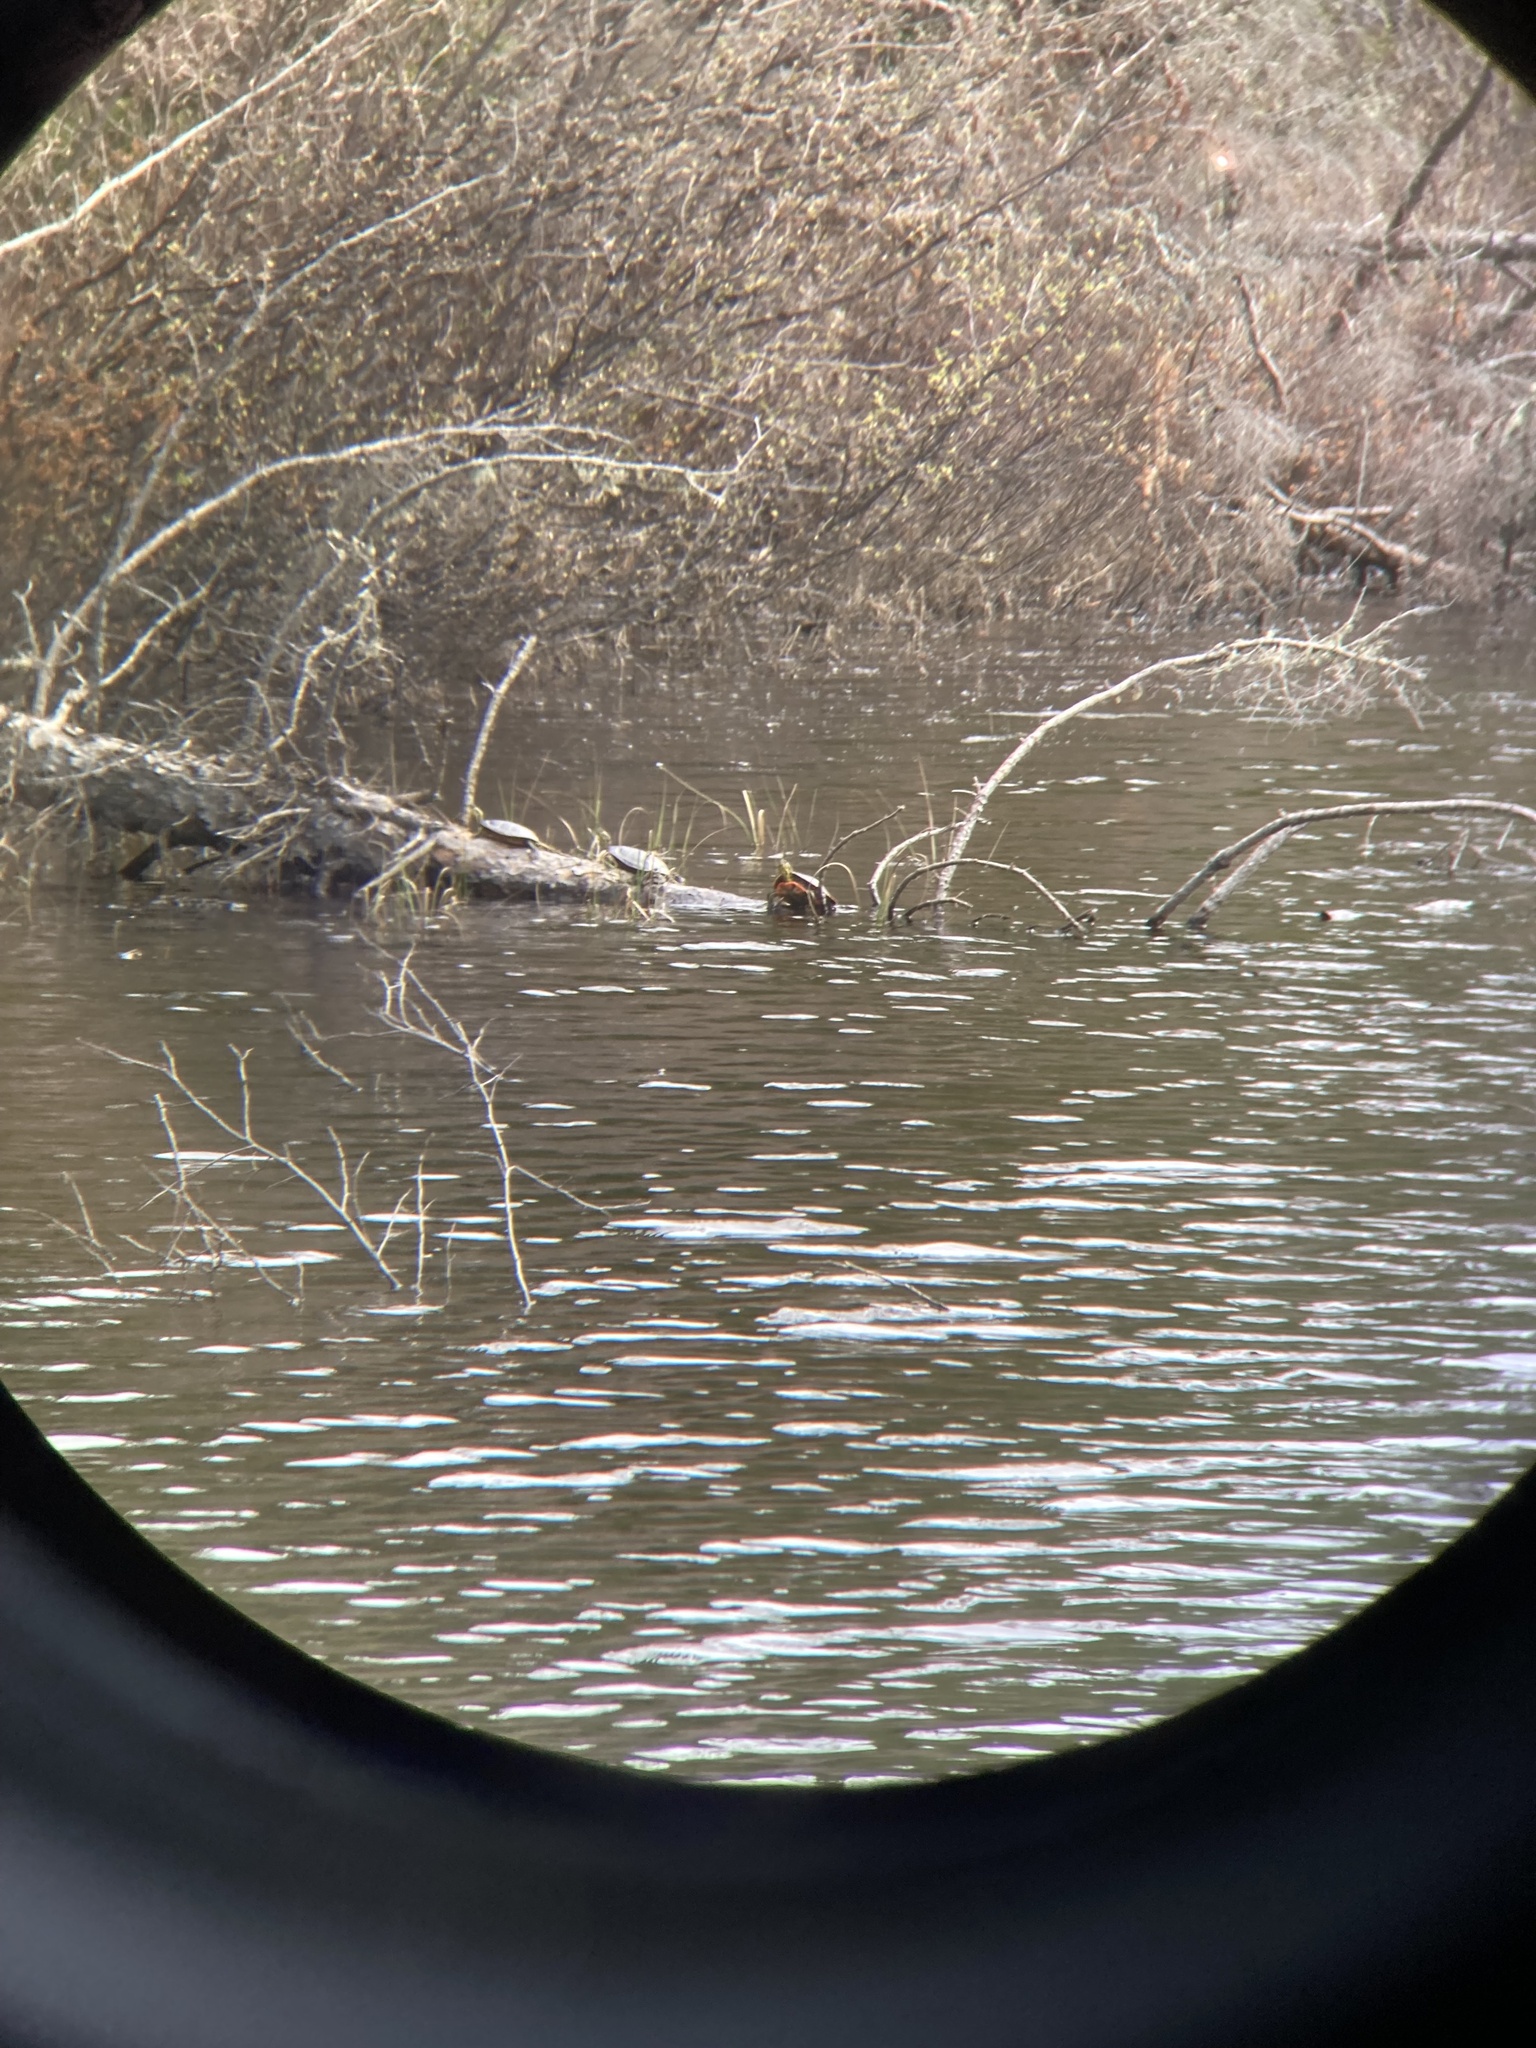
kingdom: Animalia
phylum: Chordata
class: Testudines
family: Emydidae
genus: Chrysemys
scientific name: Chrysemys picta
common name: Painted turtle
